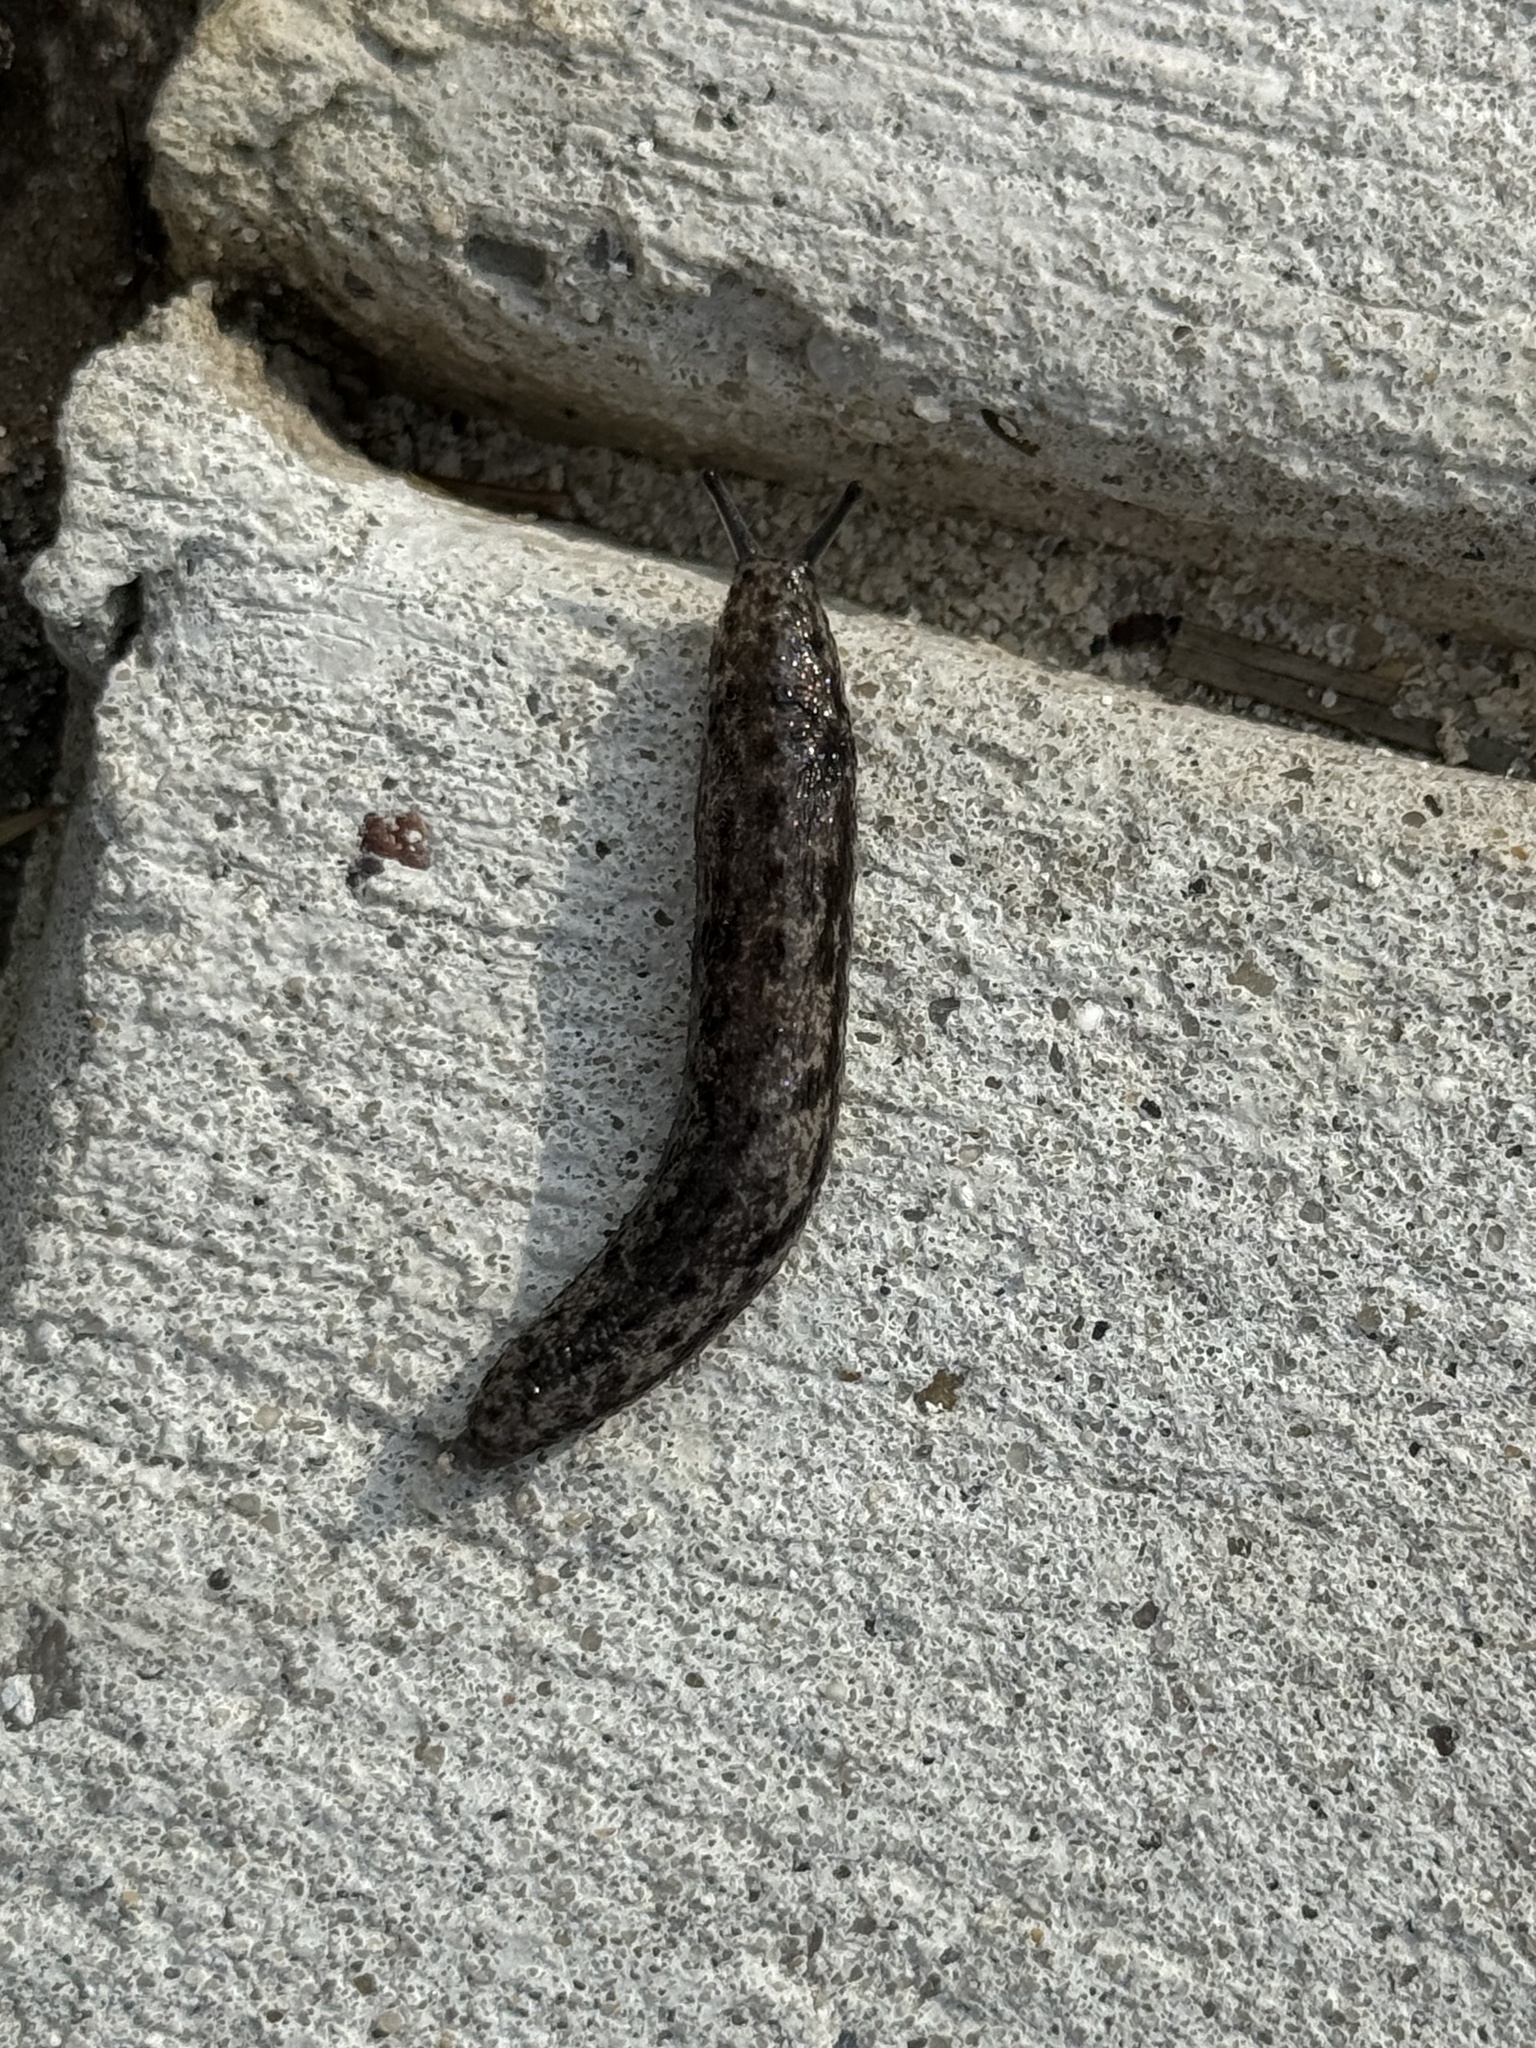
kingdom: Animalia
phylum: Mollusca
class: Gastropoda
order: Stylommatophora
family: Philomycidae
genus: Megapallifera
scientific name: Megapallifera mutabilis
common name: Changeable mantleslug
